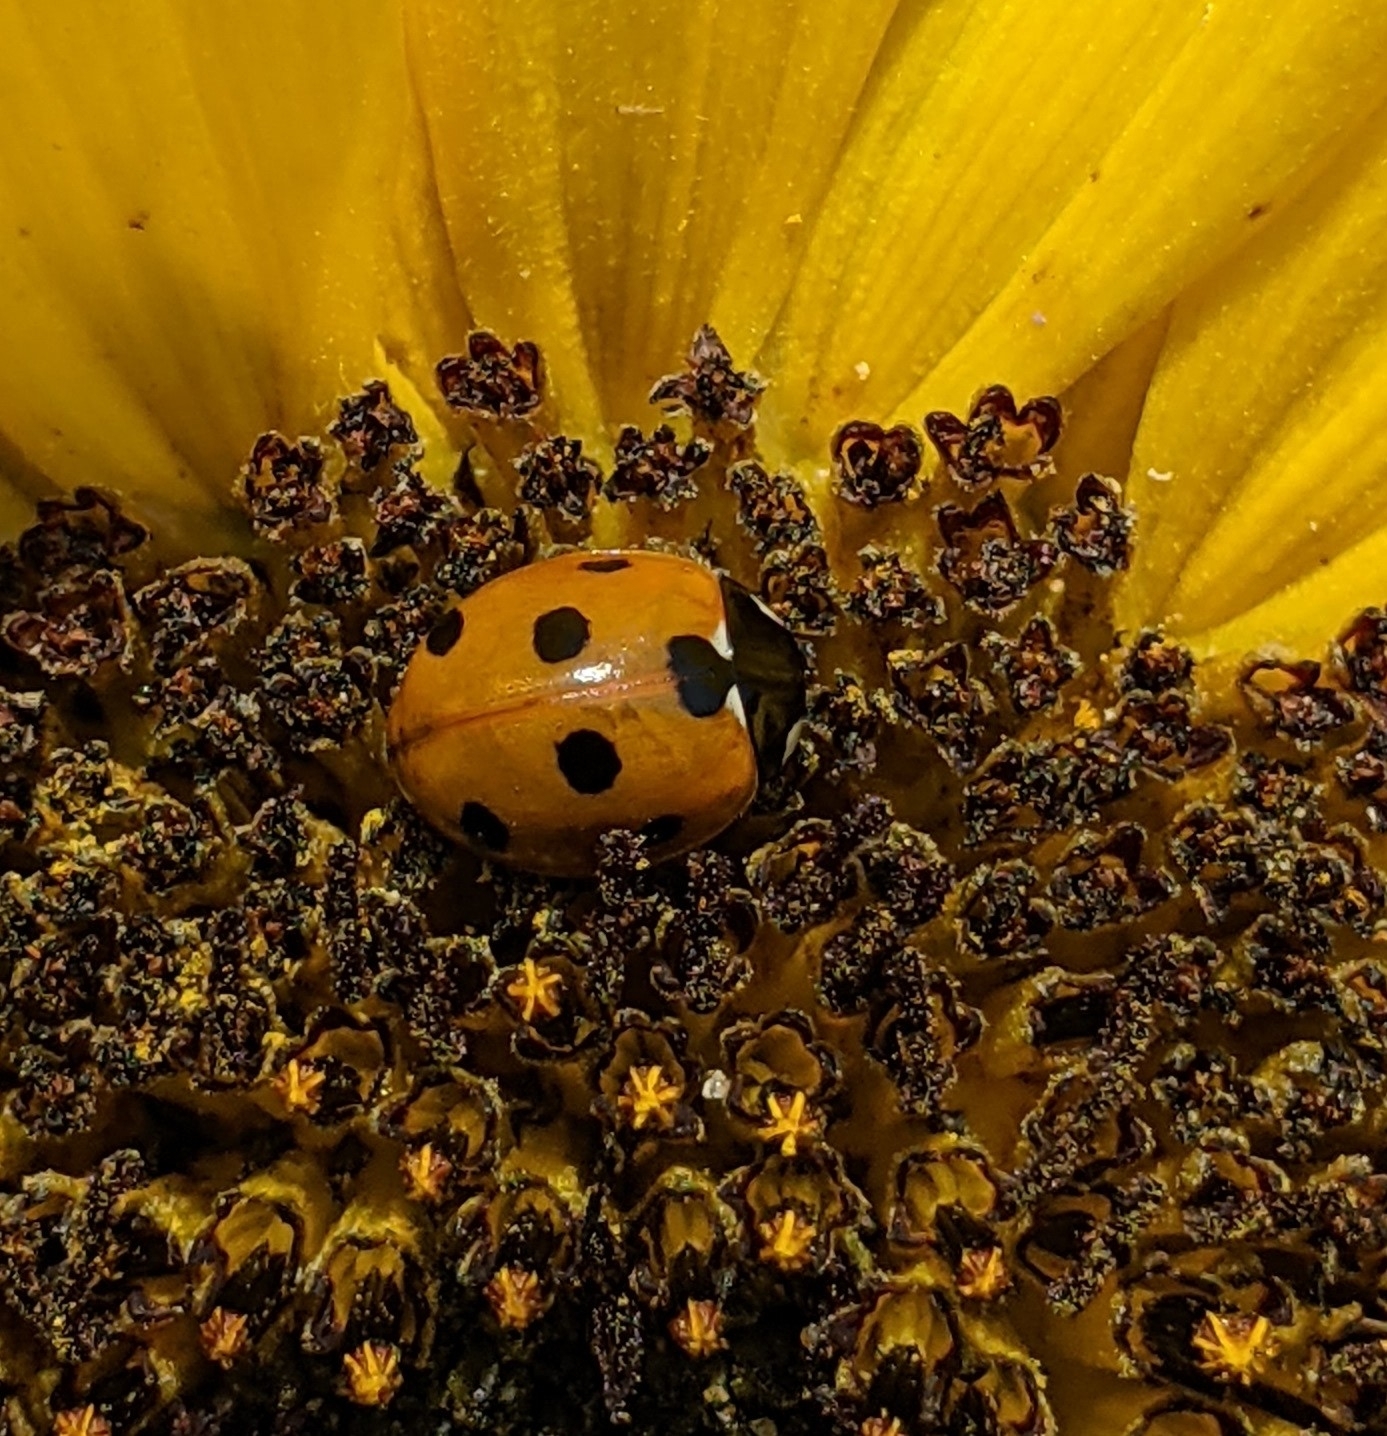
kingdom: Animalia
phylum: Arthropoda
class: Insecta
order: Coleoptera
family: Coccinellidae
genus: Coccinella
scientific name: Coccinella septempunctata
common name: Sevenspotted lady beetle
